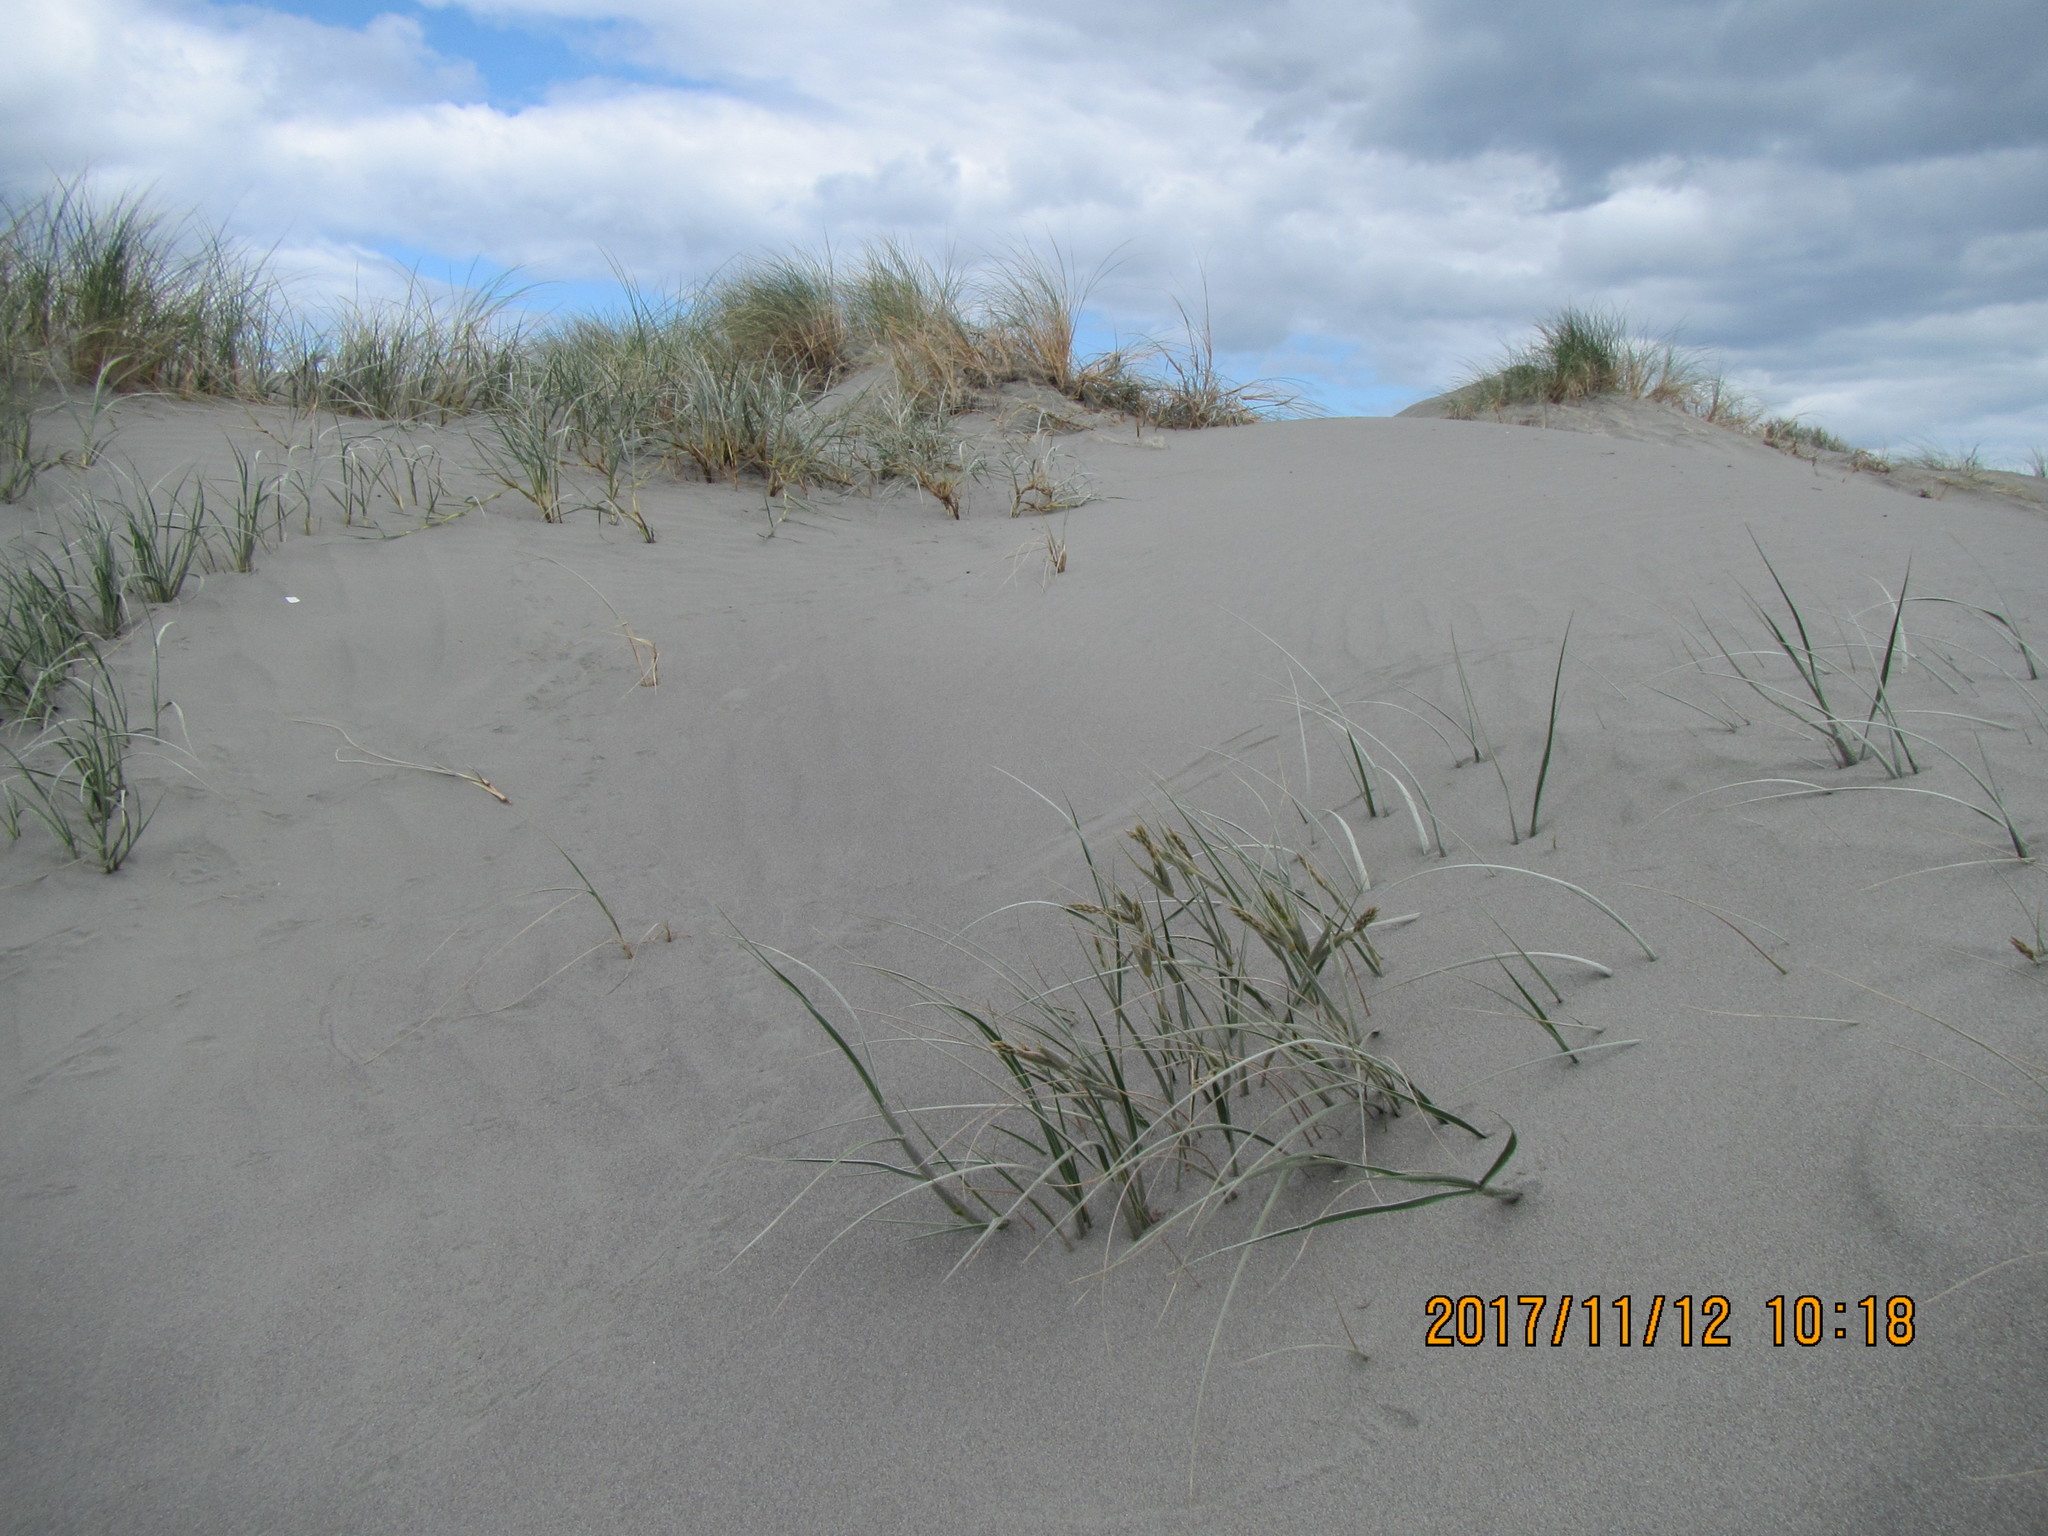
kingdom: Plantae
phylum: Tracheophyta
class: Liliopsida
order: Poales
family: Poaceae
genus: Spinifex
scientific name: Spinifex sericeus
